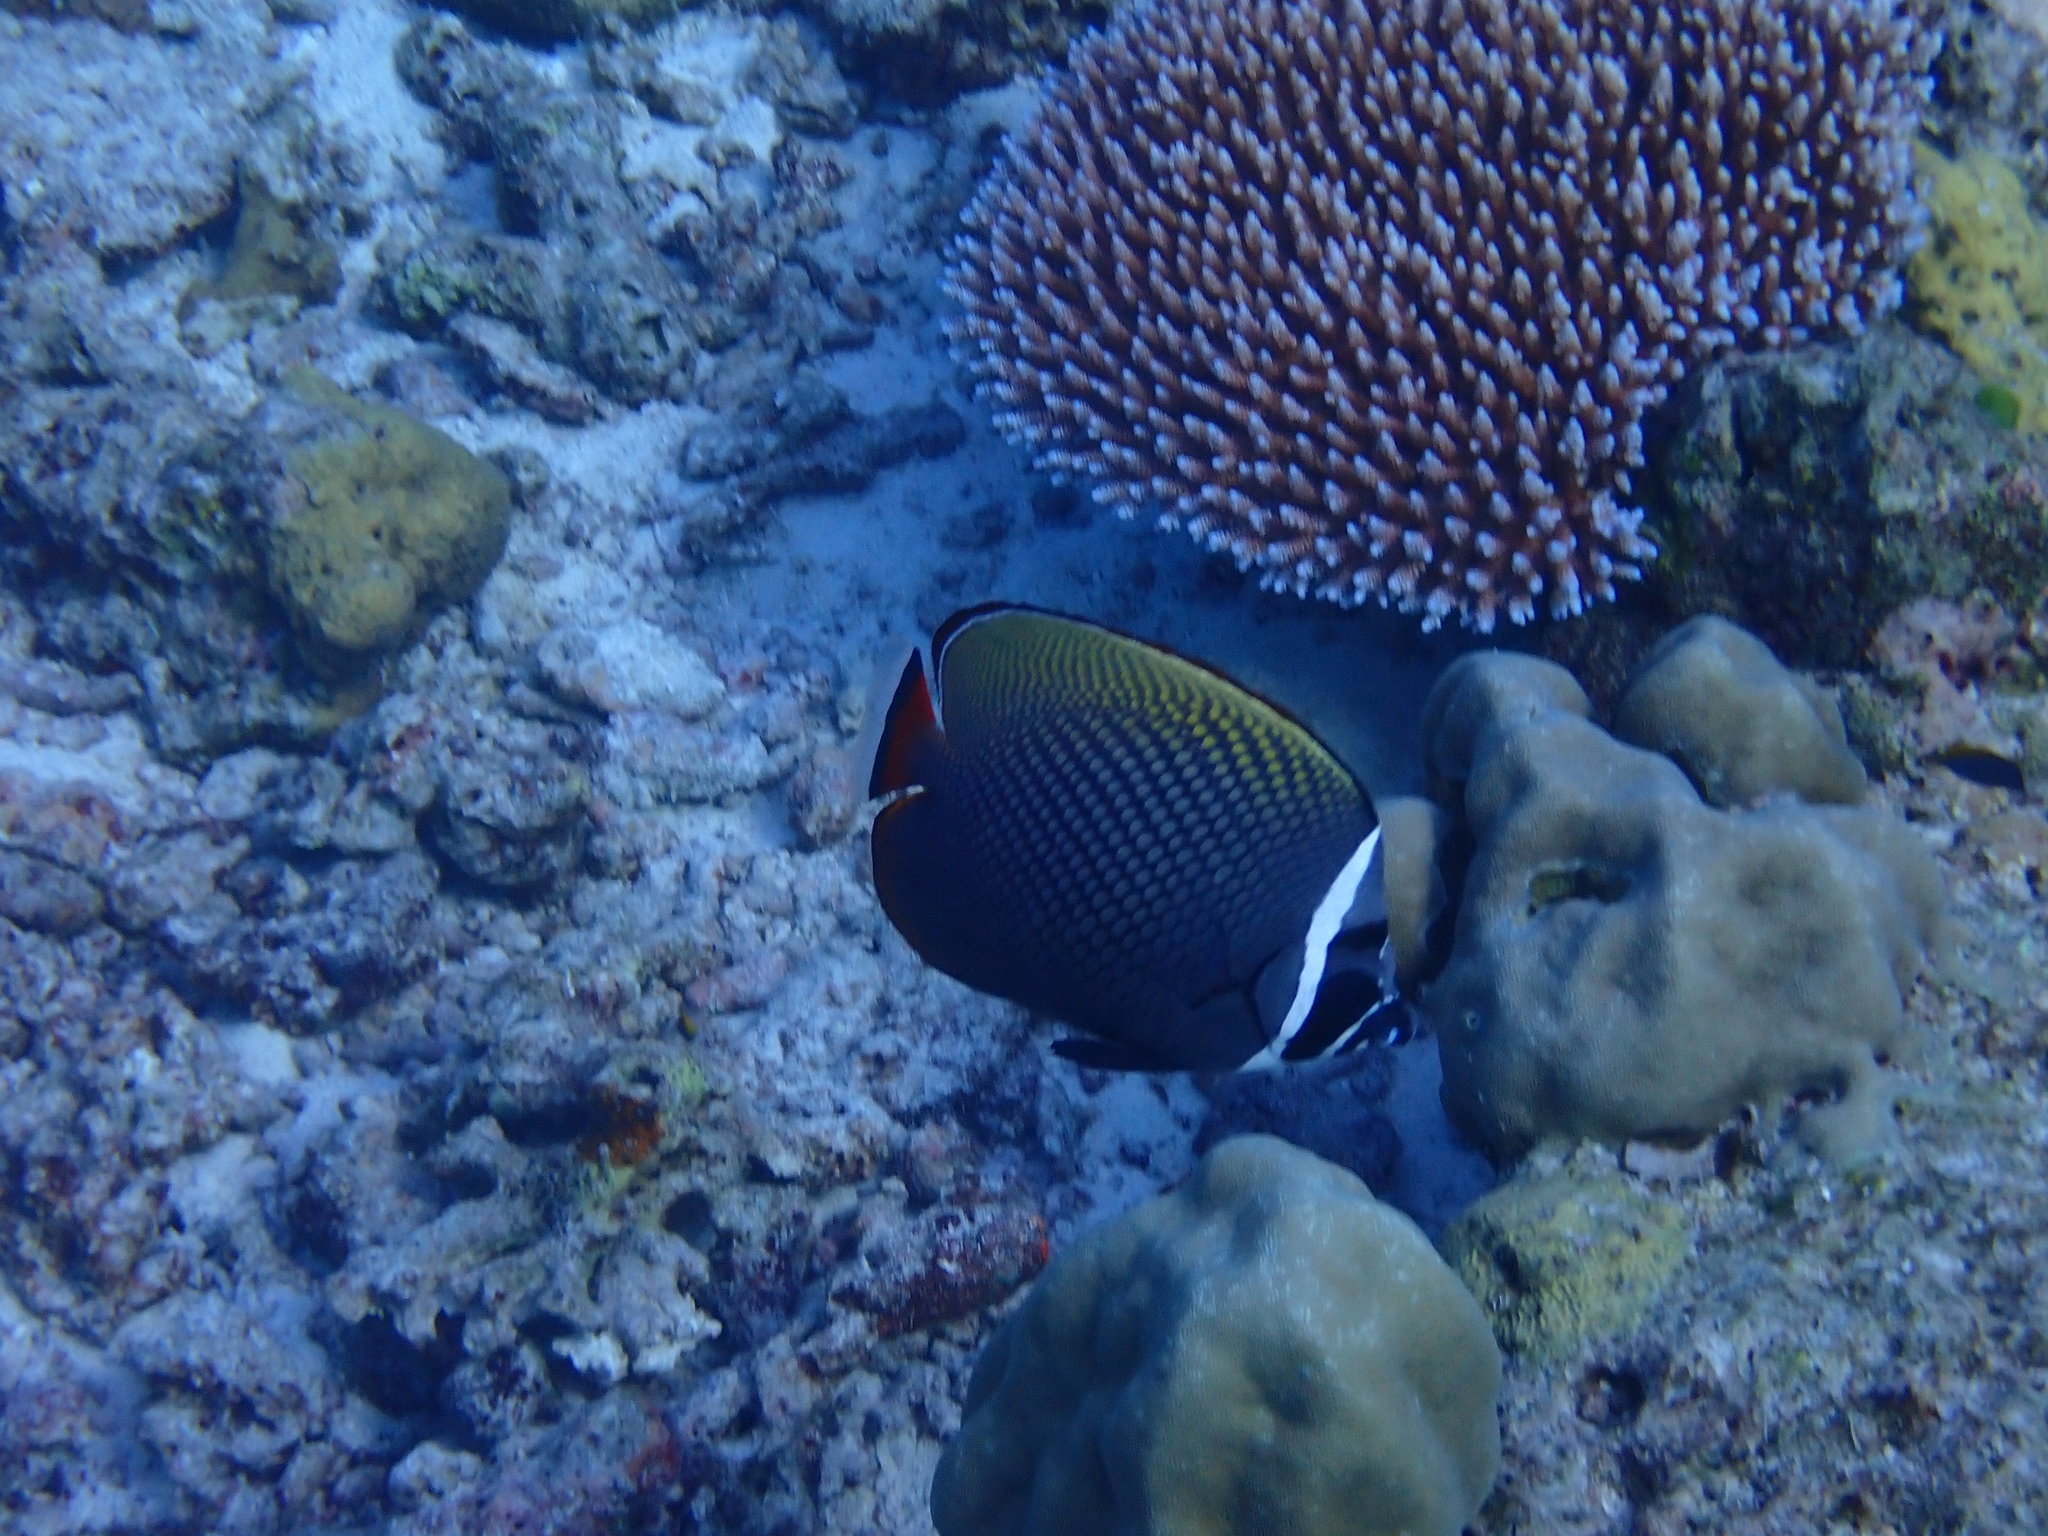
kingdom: Animalia
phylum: Chordata
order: Perciformes
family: Chaetodontidae
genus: Chaetodon
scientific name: Chaetodon collare
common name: Redtail butterflyfish
